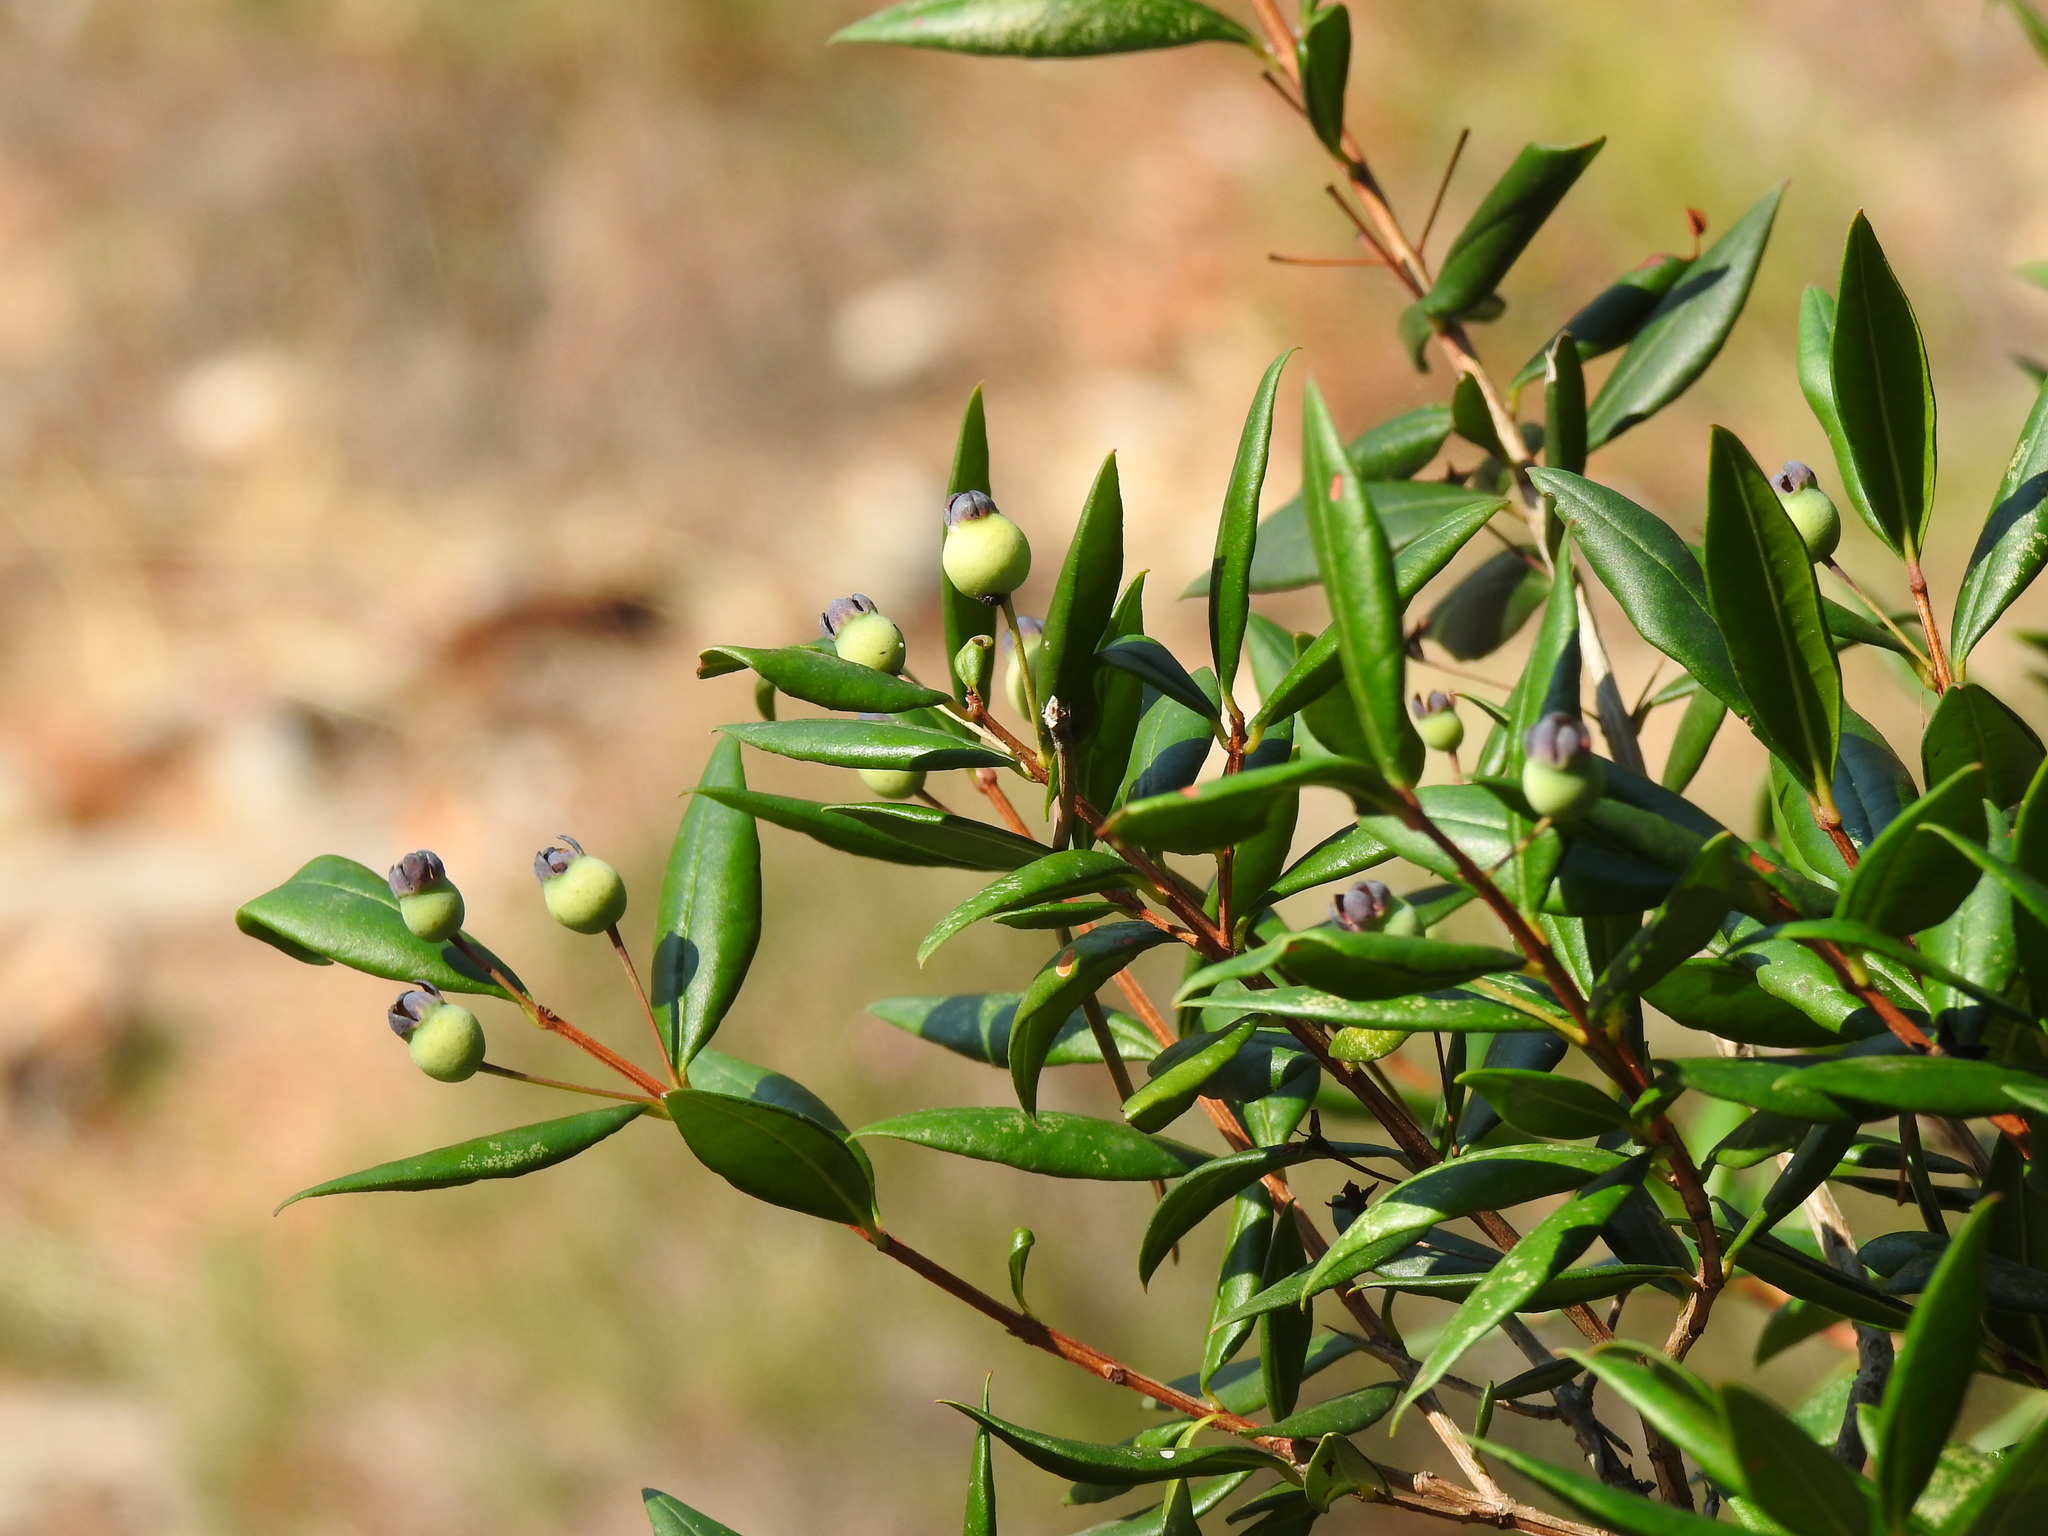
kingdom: Plantae
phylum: Tracheophyta
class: Magnoliopsida
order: Myrtales
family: Myrtaceae
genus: Myrtus
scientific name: Myrtus communis
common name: Myrtle
